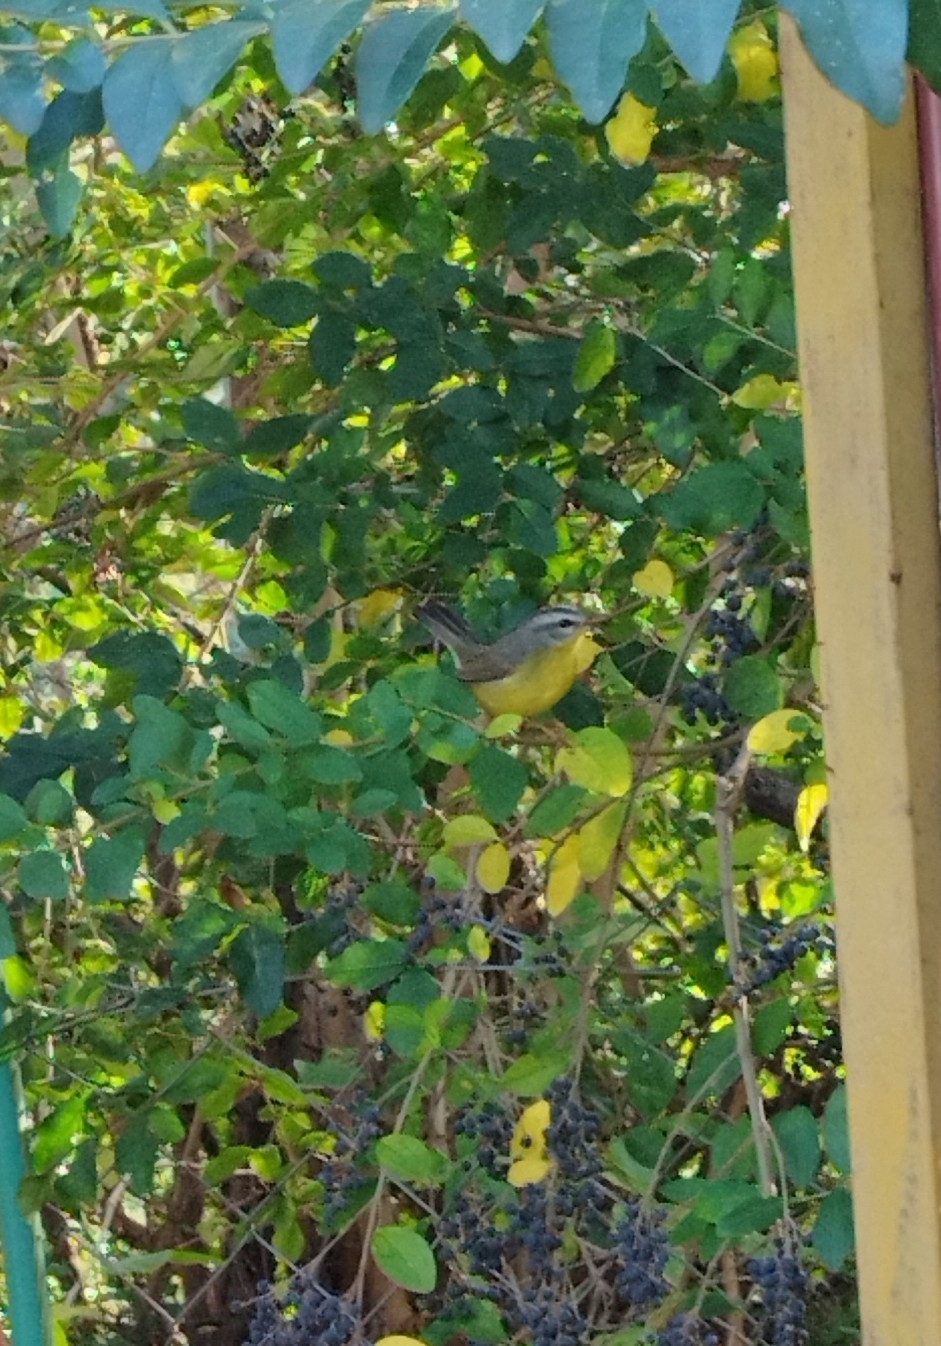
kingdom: Animalia
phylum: Chordata
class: Aves
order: Passeriformes
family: Parulidae
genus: Basileuterus
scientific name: Basileuterus culicivorus
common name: Golden-crowned warbler
